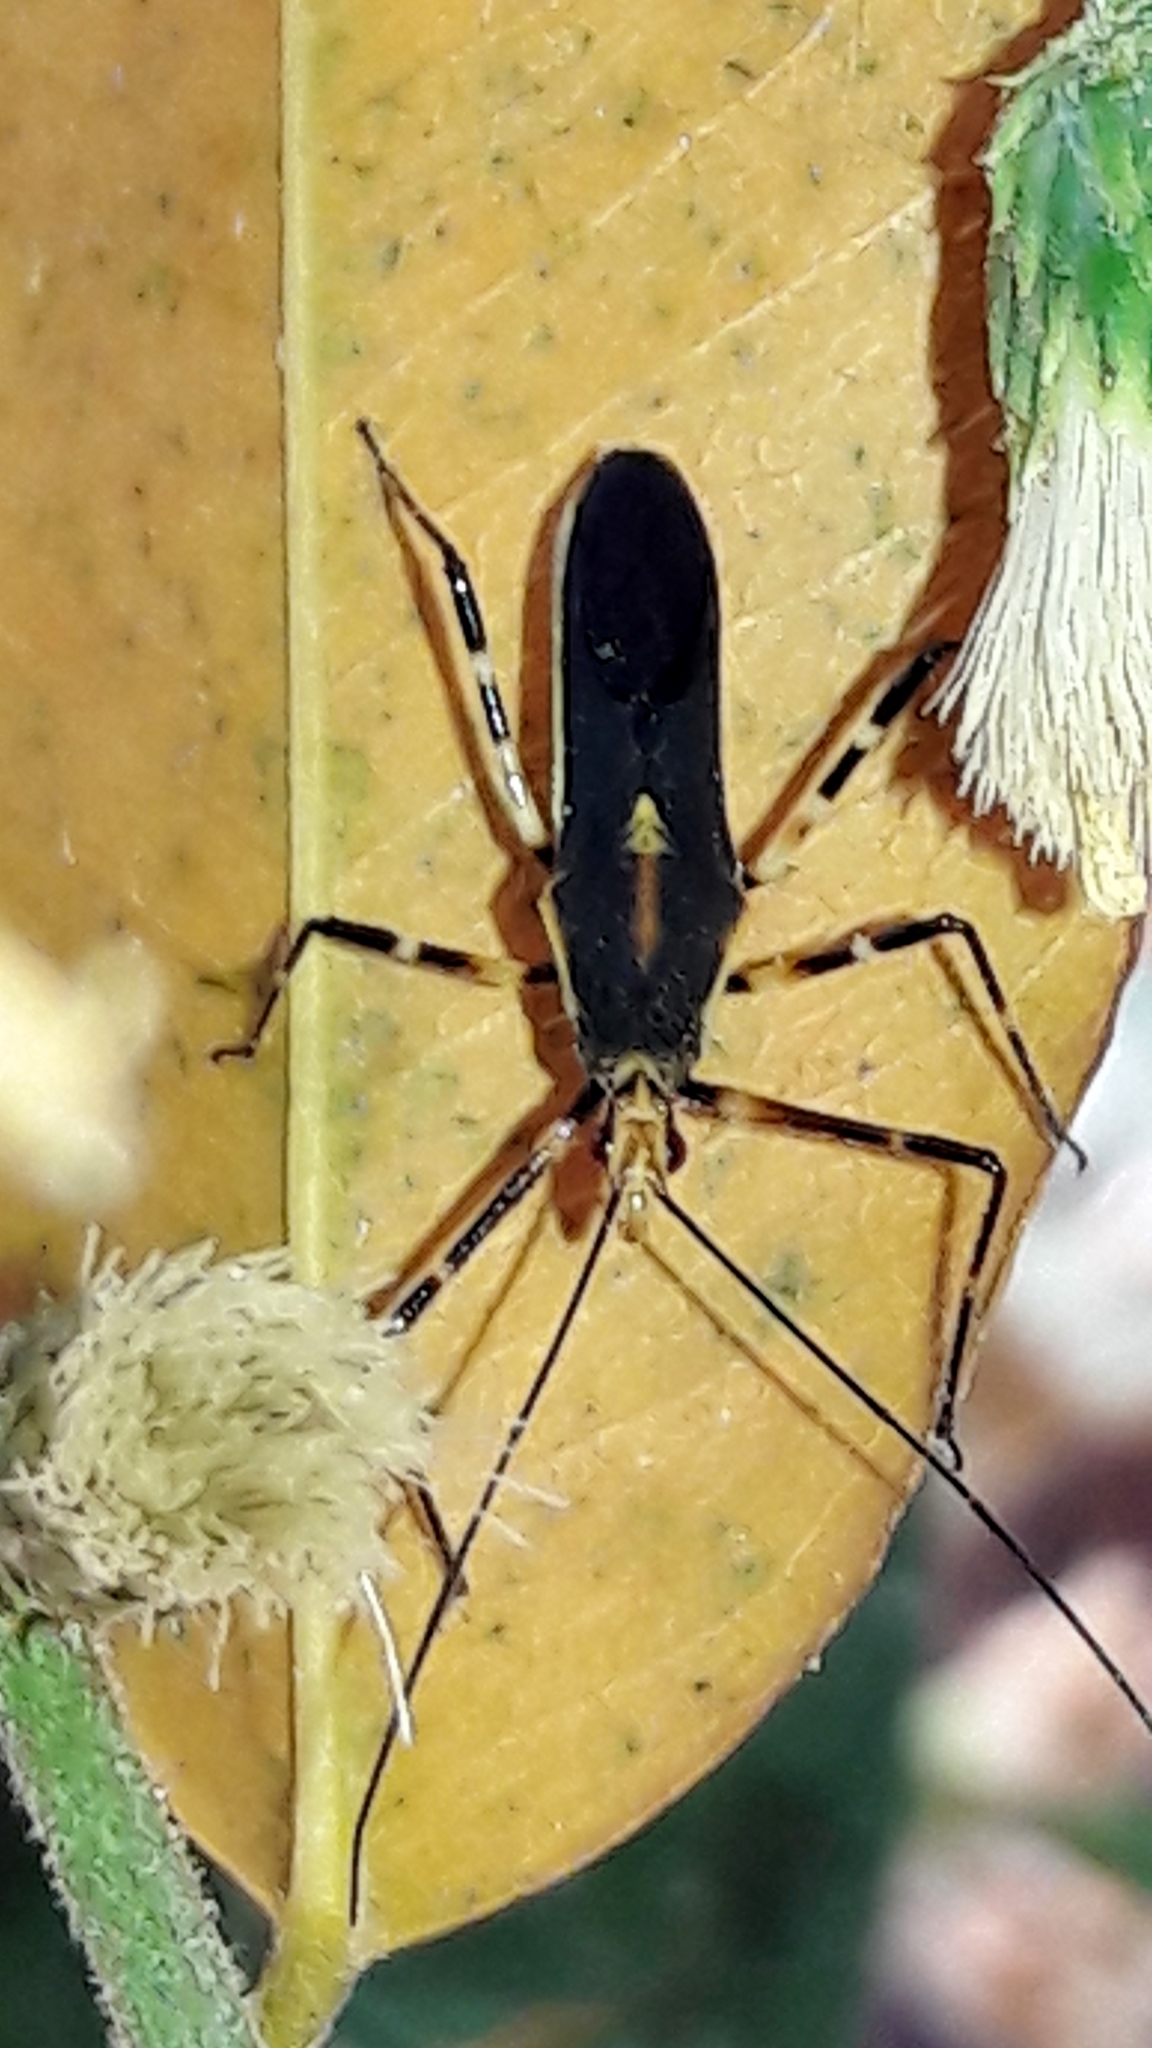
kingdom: Animalia
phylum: Arthropoda
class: Insecta
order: Hemiptera
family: Reduviidae
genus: Zelus
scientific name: Zelus laticornis
